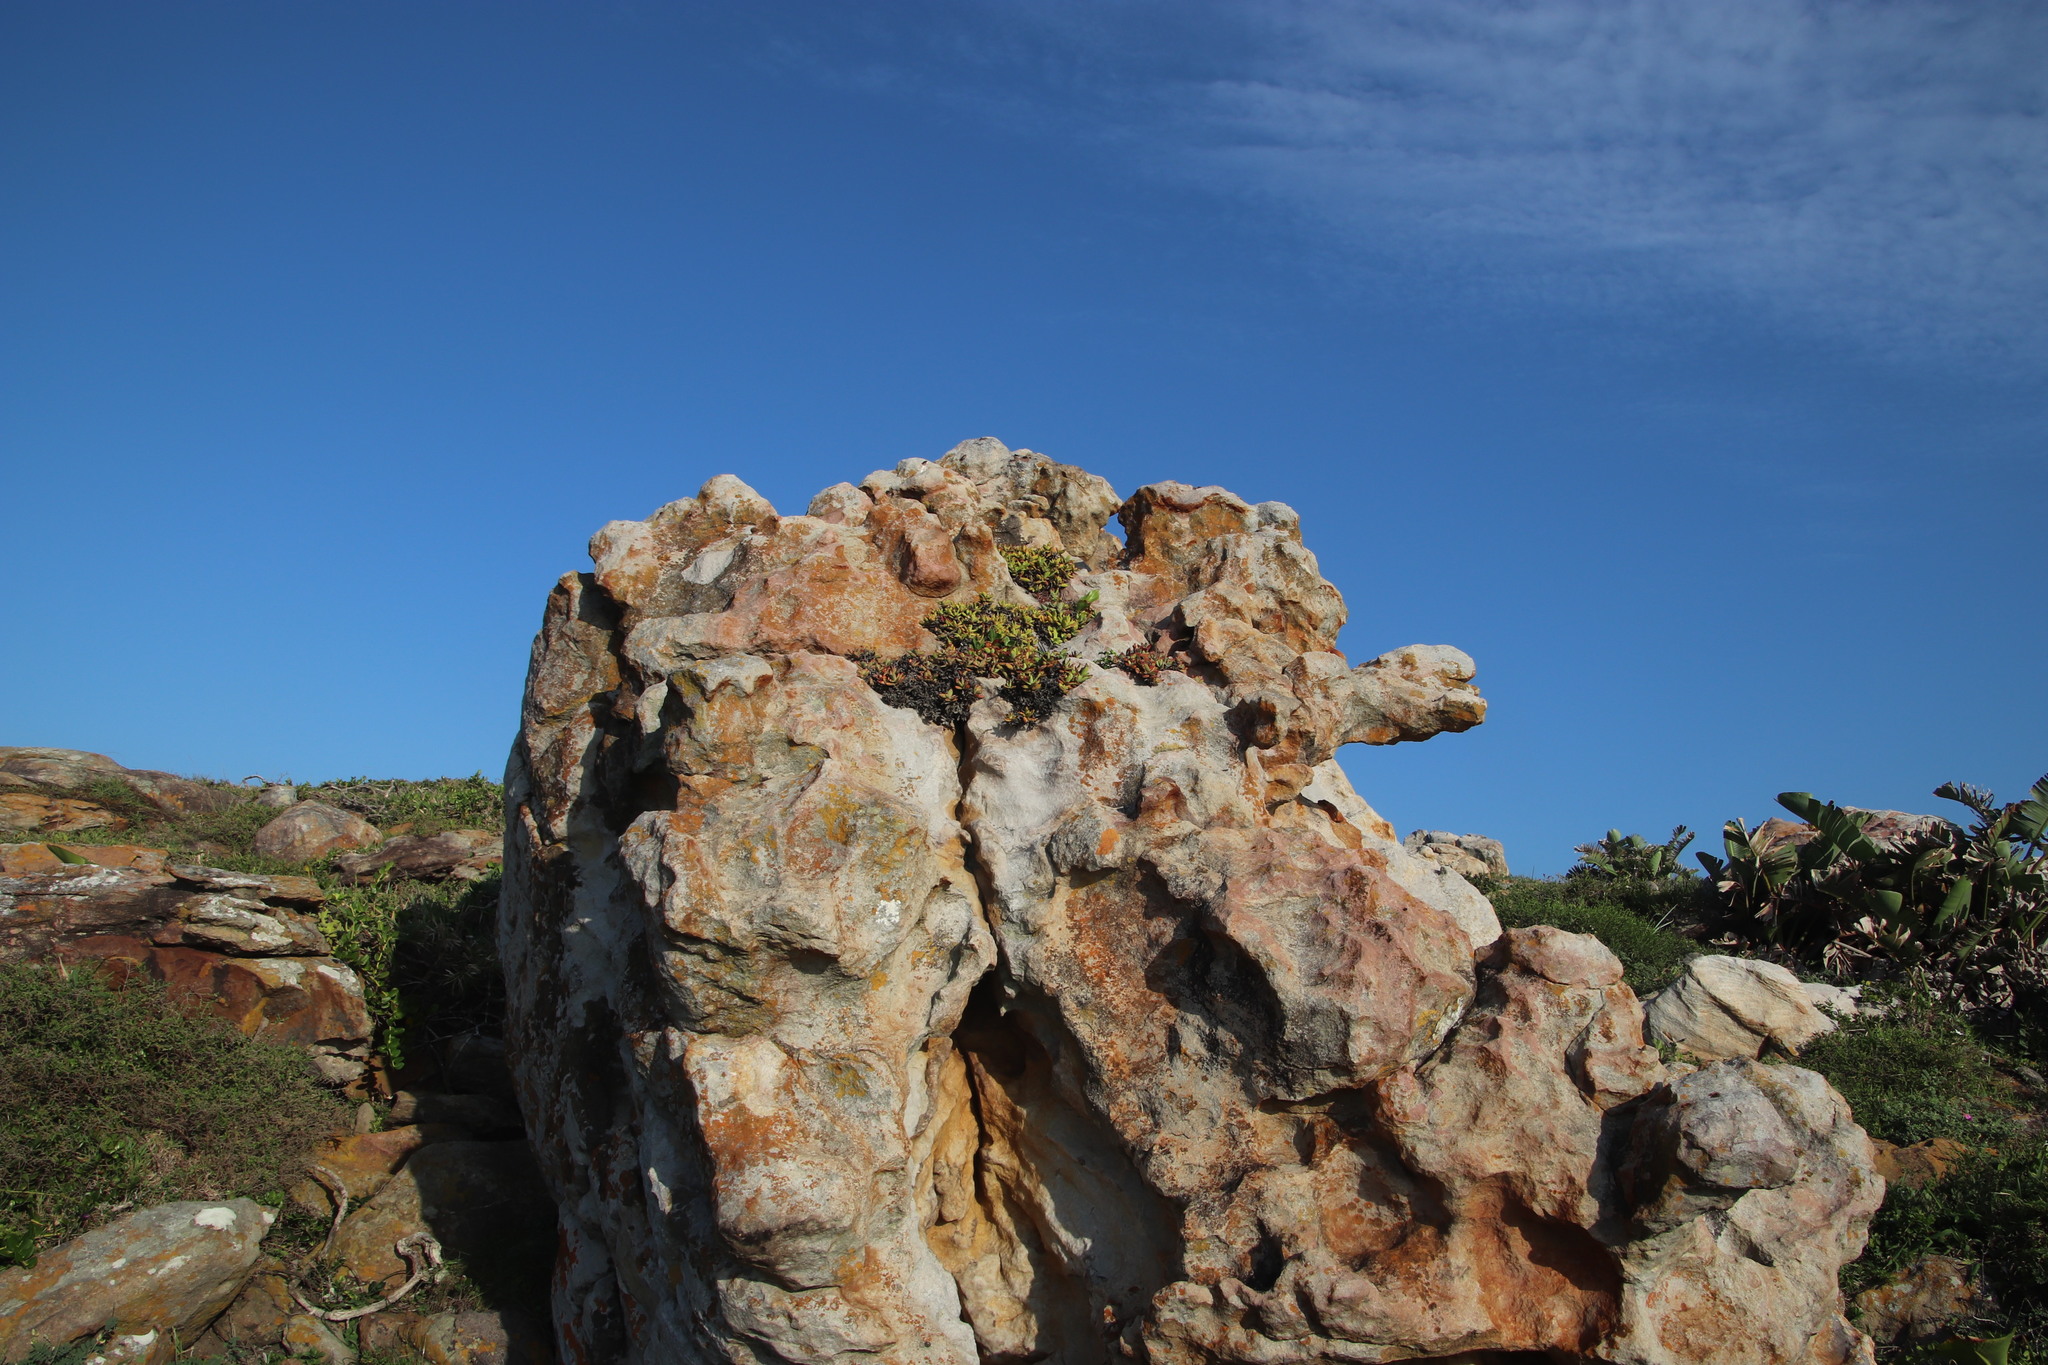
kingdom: Plantae
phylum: Tracheophyta
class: Magnoliopsida
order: Saxifragales
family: Crassulaceae
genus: Crassula
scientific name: Crassula perfoliata
